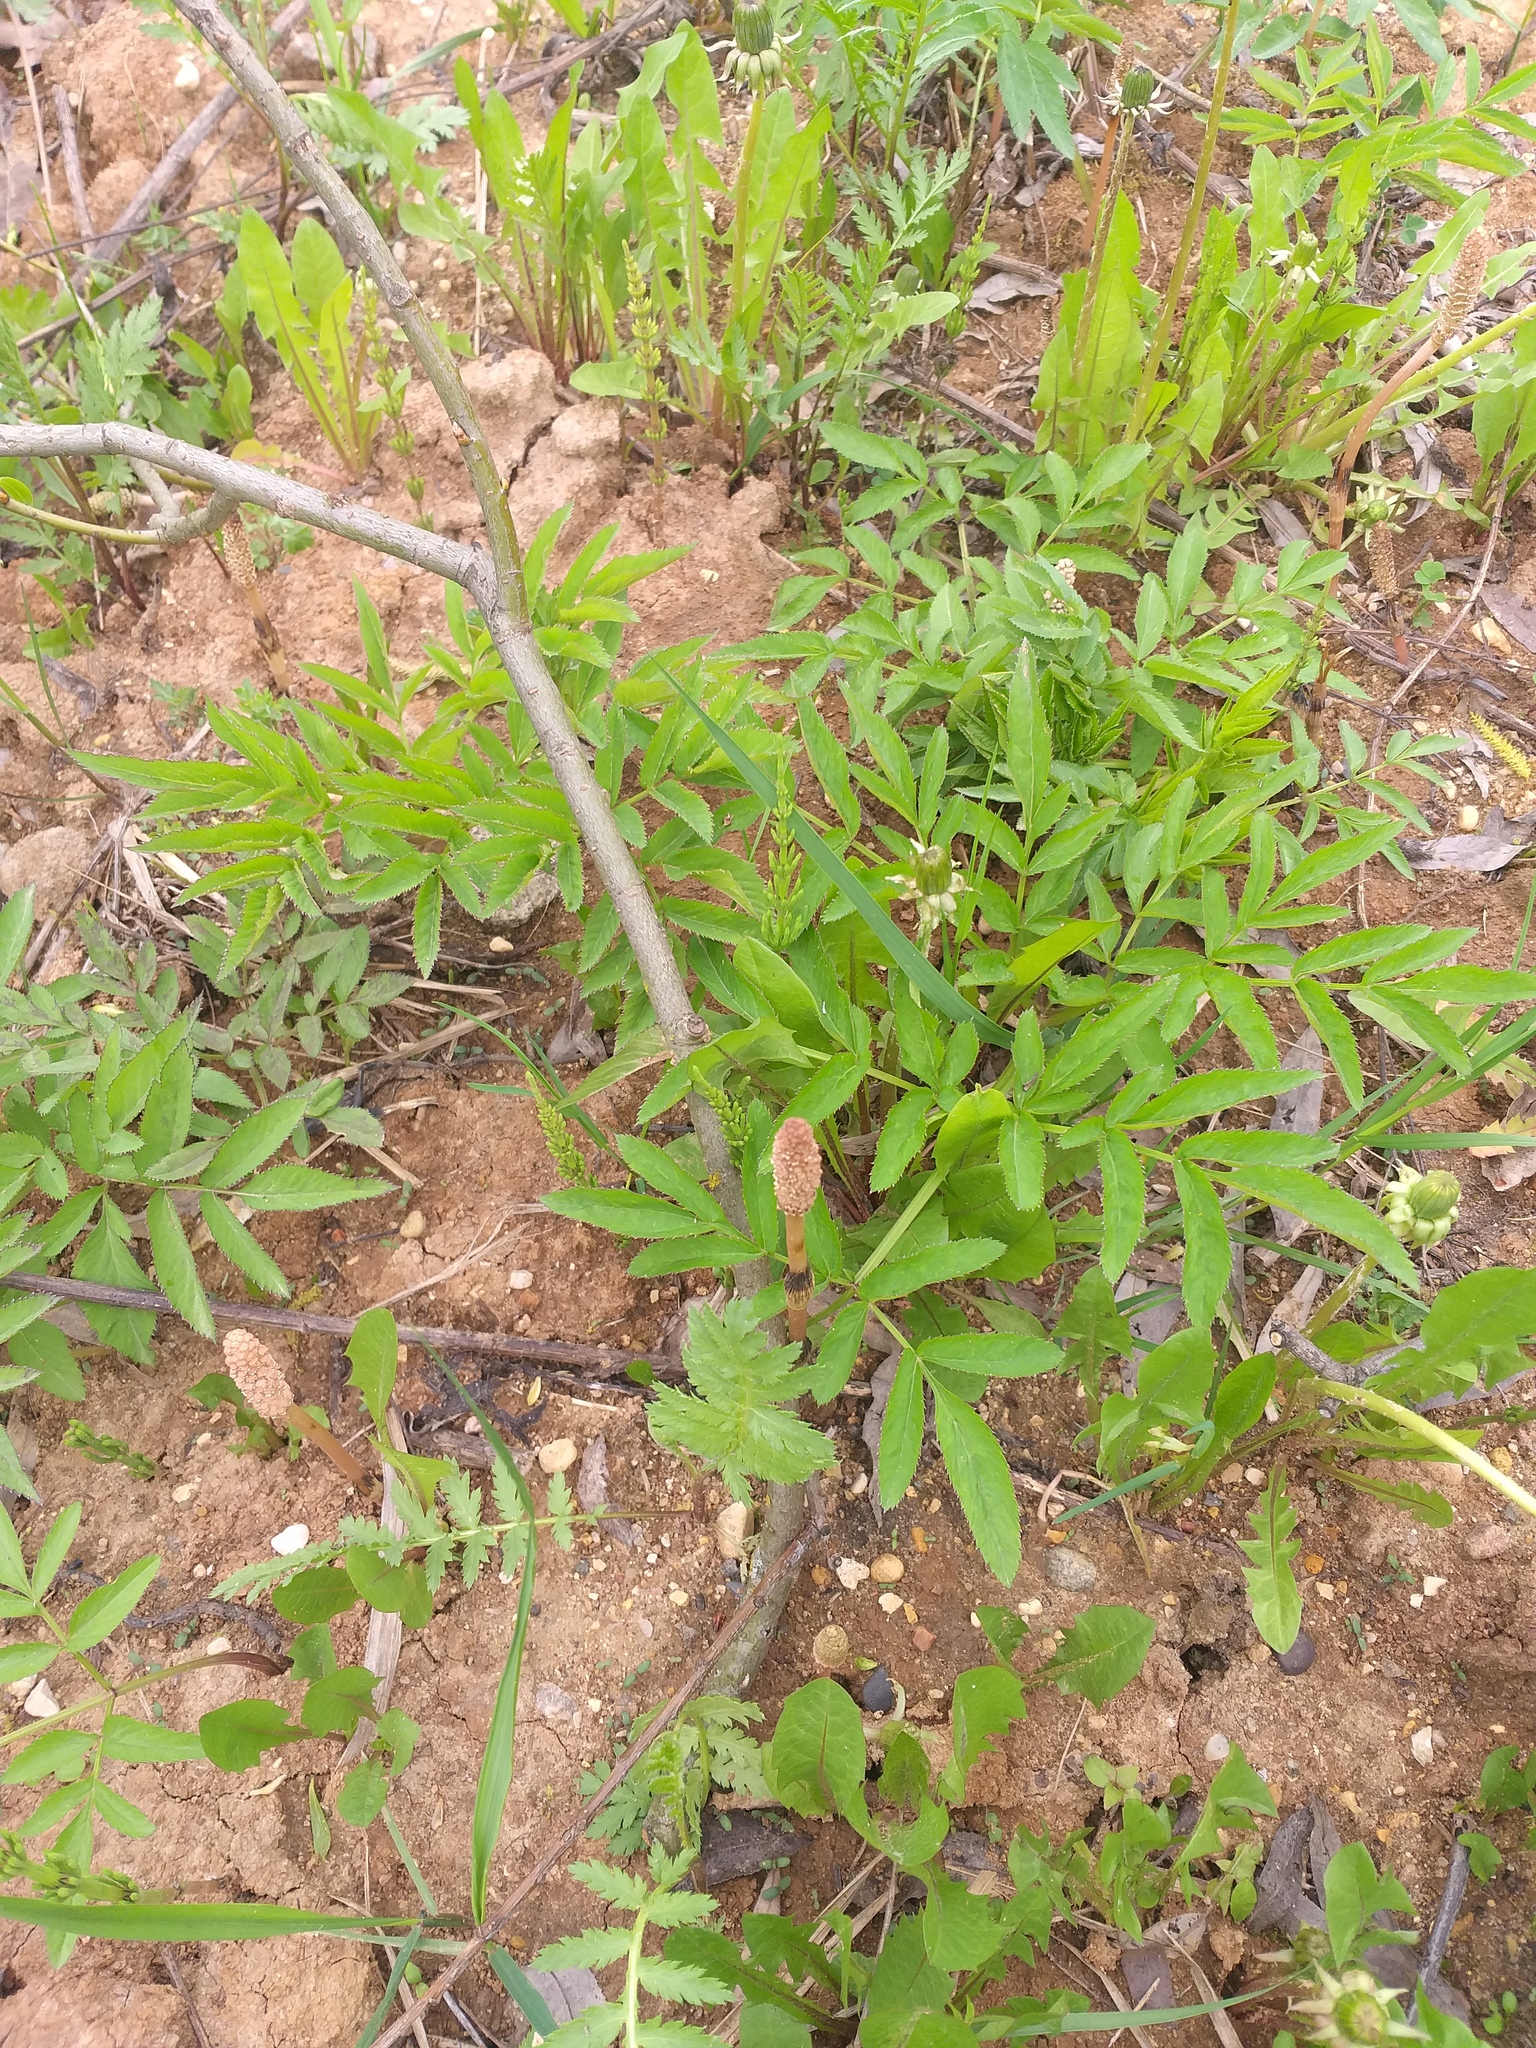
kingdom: Plantae
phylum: Tracheophyta
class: Polypodiopsida
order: Equisetales
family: Equisetaceae
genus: Equisetum
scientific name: Equisetum arvense
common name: Field horsetail
